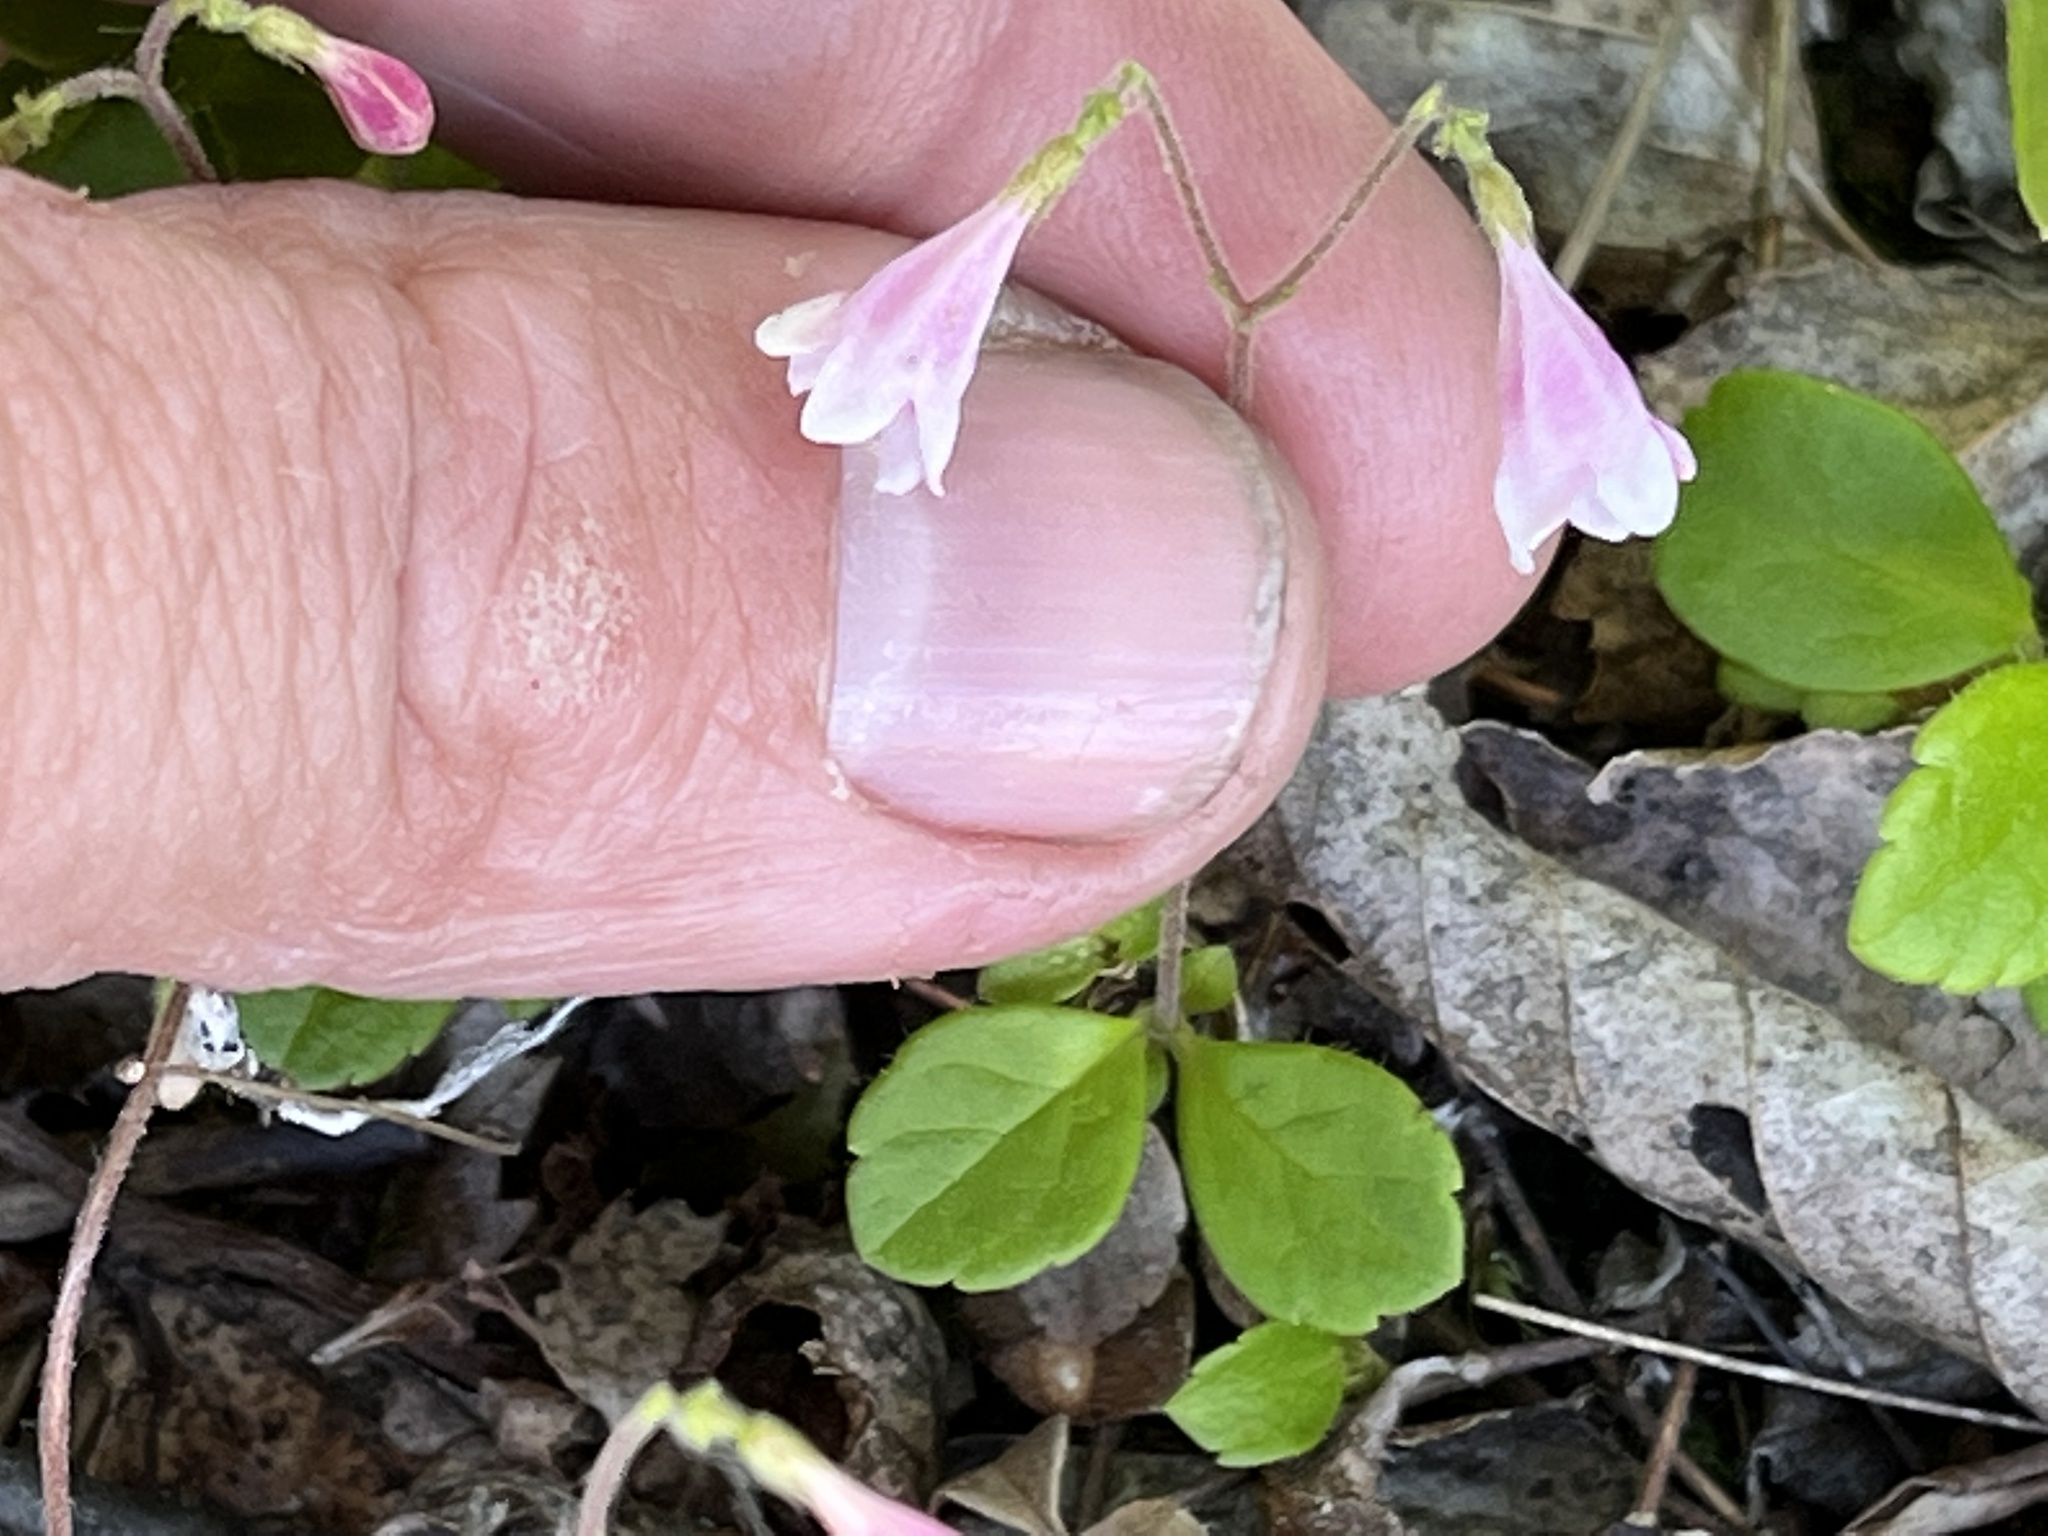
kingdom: Plantae
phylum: Tracheophyta
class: Magnoliopsida
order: Dipsacales
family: Caprifoliaceae
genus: Linnaea
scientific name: Linnaea borealis
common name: Twinflower
